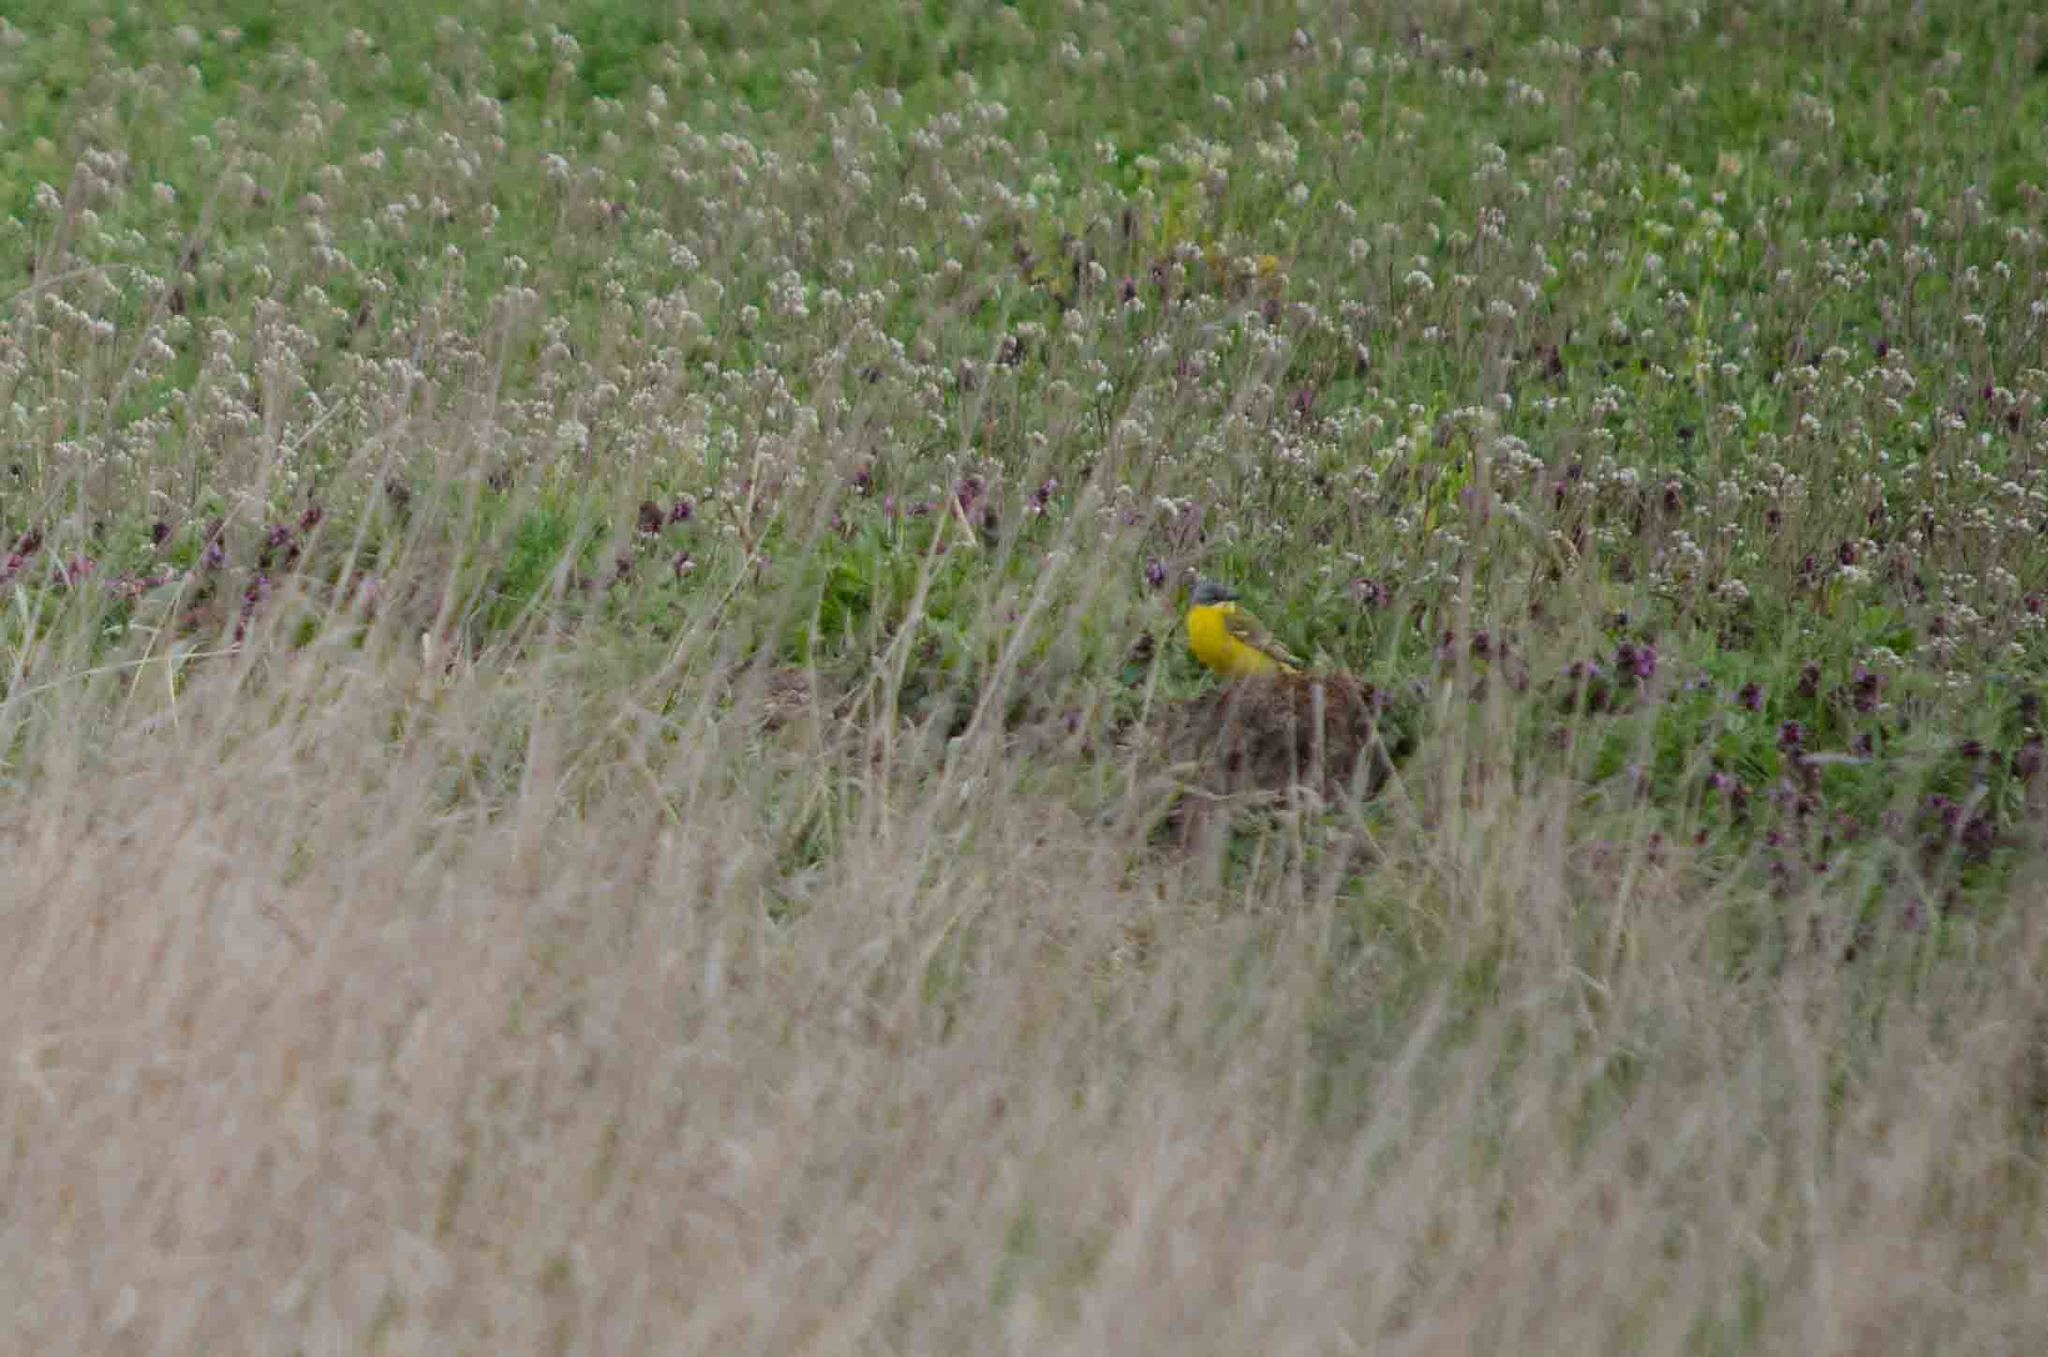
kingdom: Animalia
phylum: Chordata
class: Aves
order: Passeriformes
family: Motacillidae
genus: Motacilla
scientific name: Motacilla flava
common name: Western yellow wagtail
